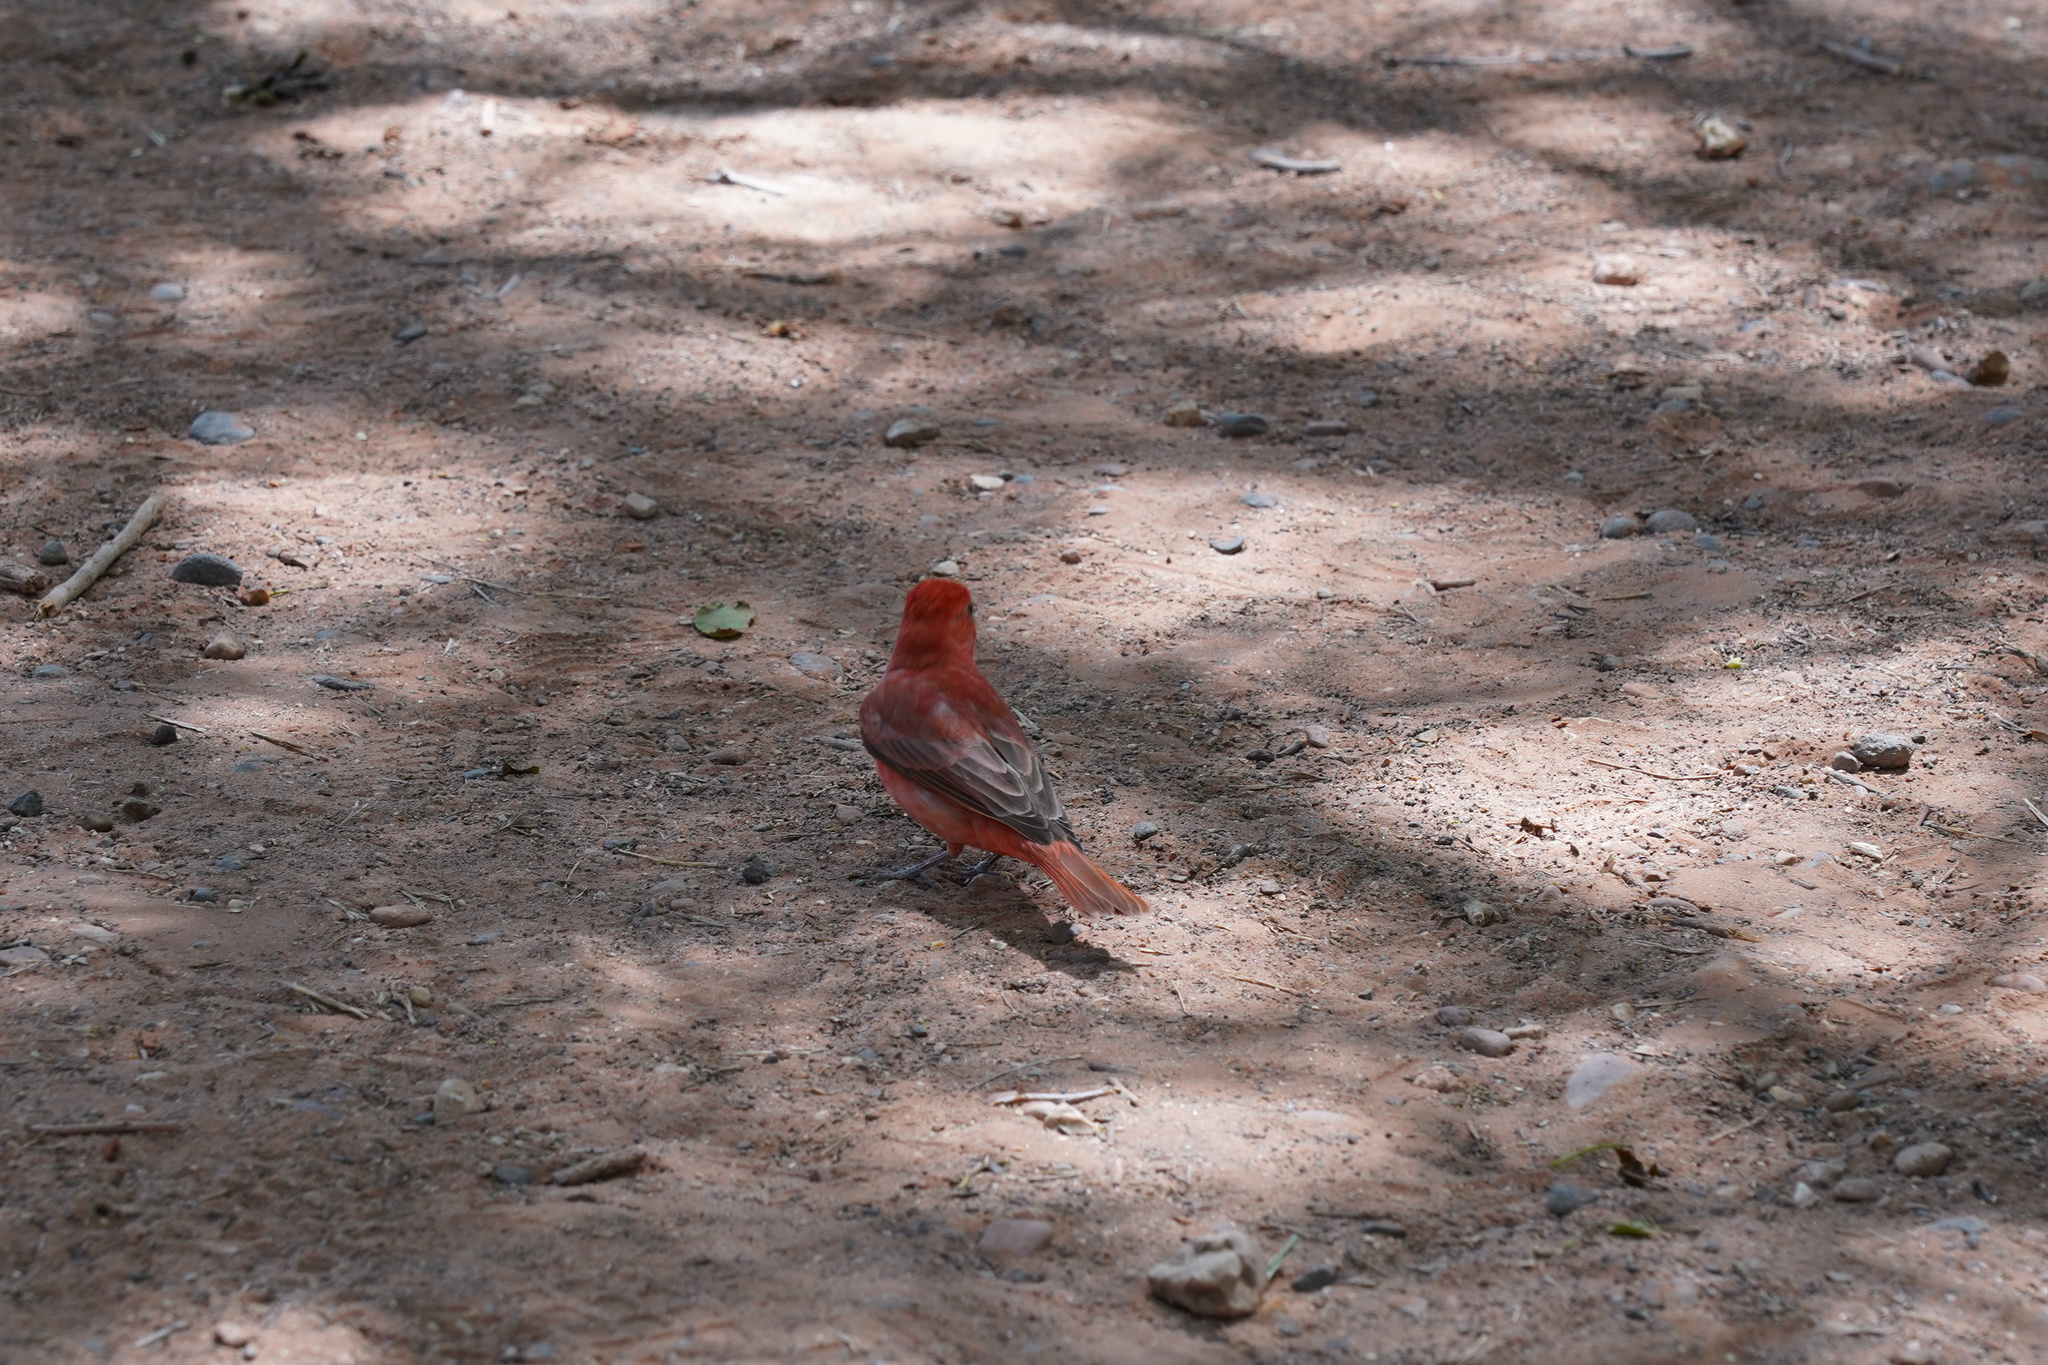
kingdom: Animalia
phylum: Chordata
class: Aves
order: Passeriformes
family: Cardinalidae
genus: Piranga
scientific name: Piranga rubra
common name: Summer tanager
